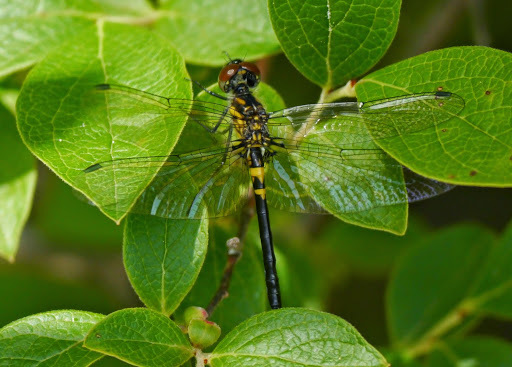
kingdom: Animalia
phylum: Arthropoda
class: Insecta
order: Odonata
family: Libellulidae
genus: Celithemis
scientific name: Celithemis verna
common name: Double-ringed pennant
